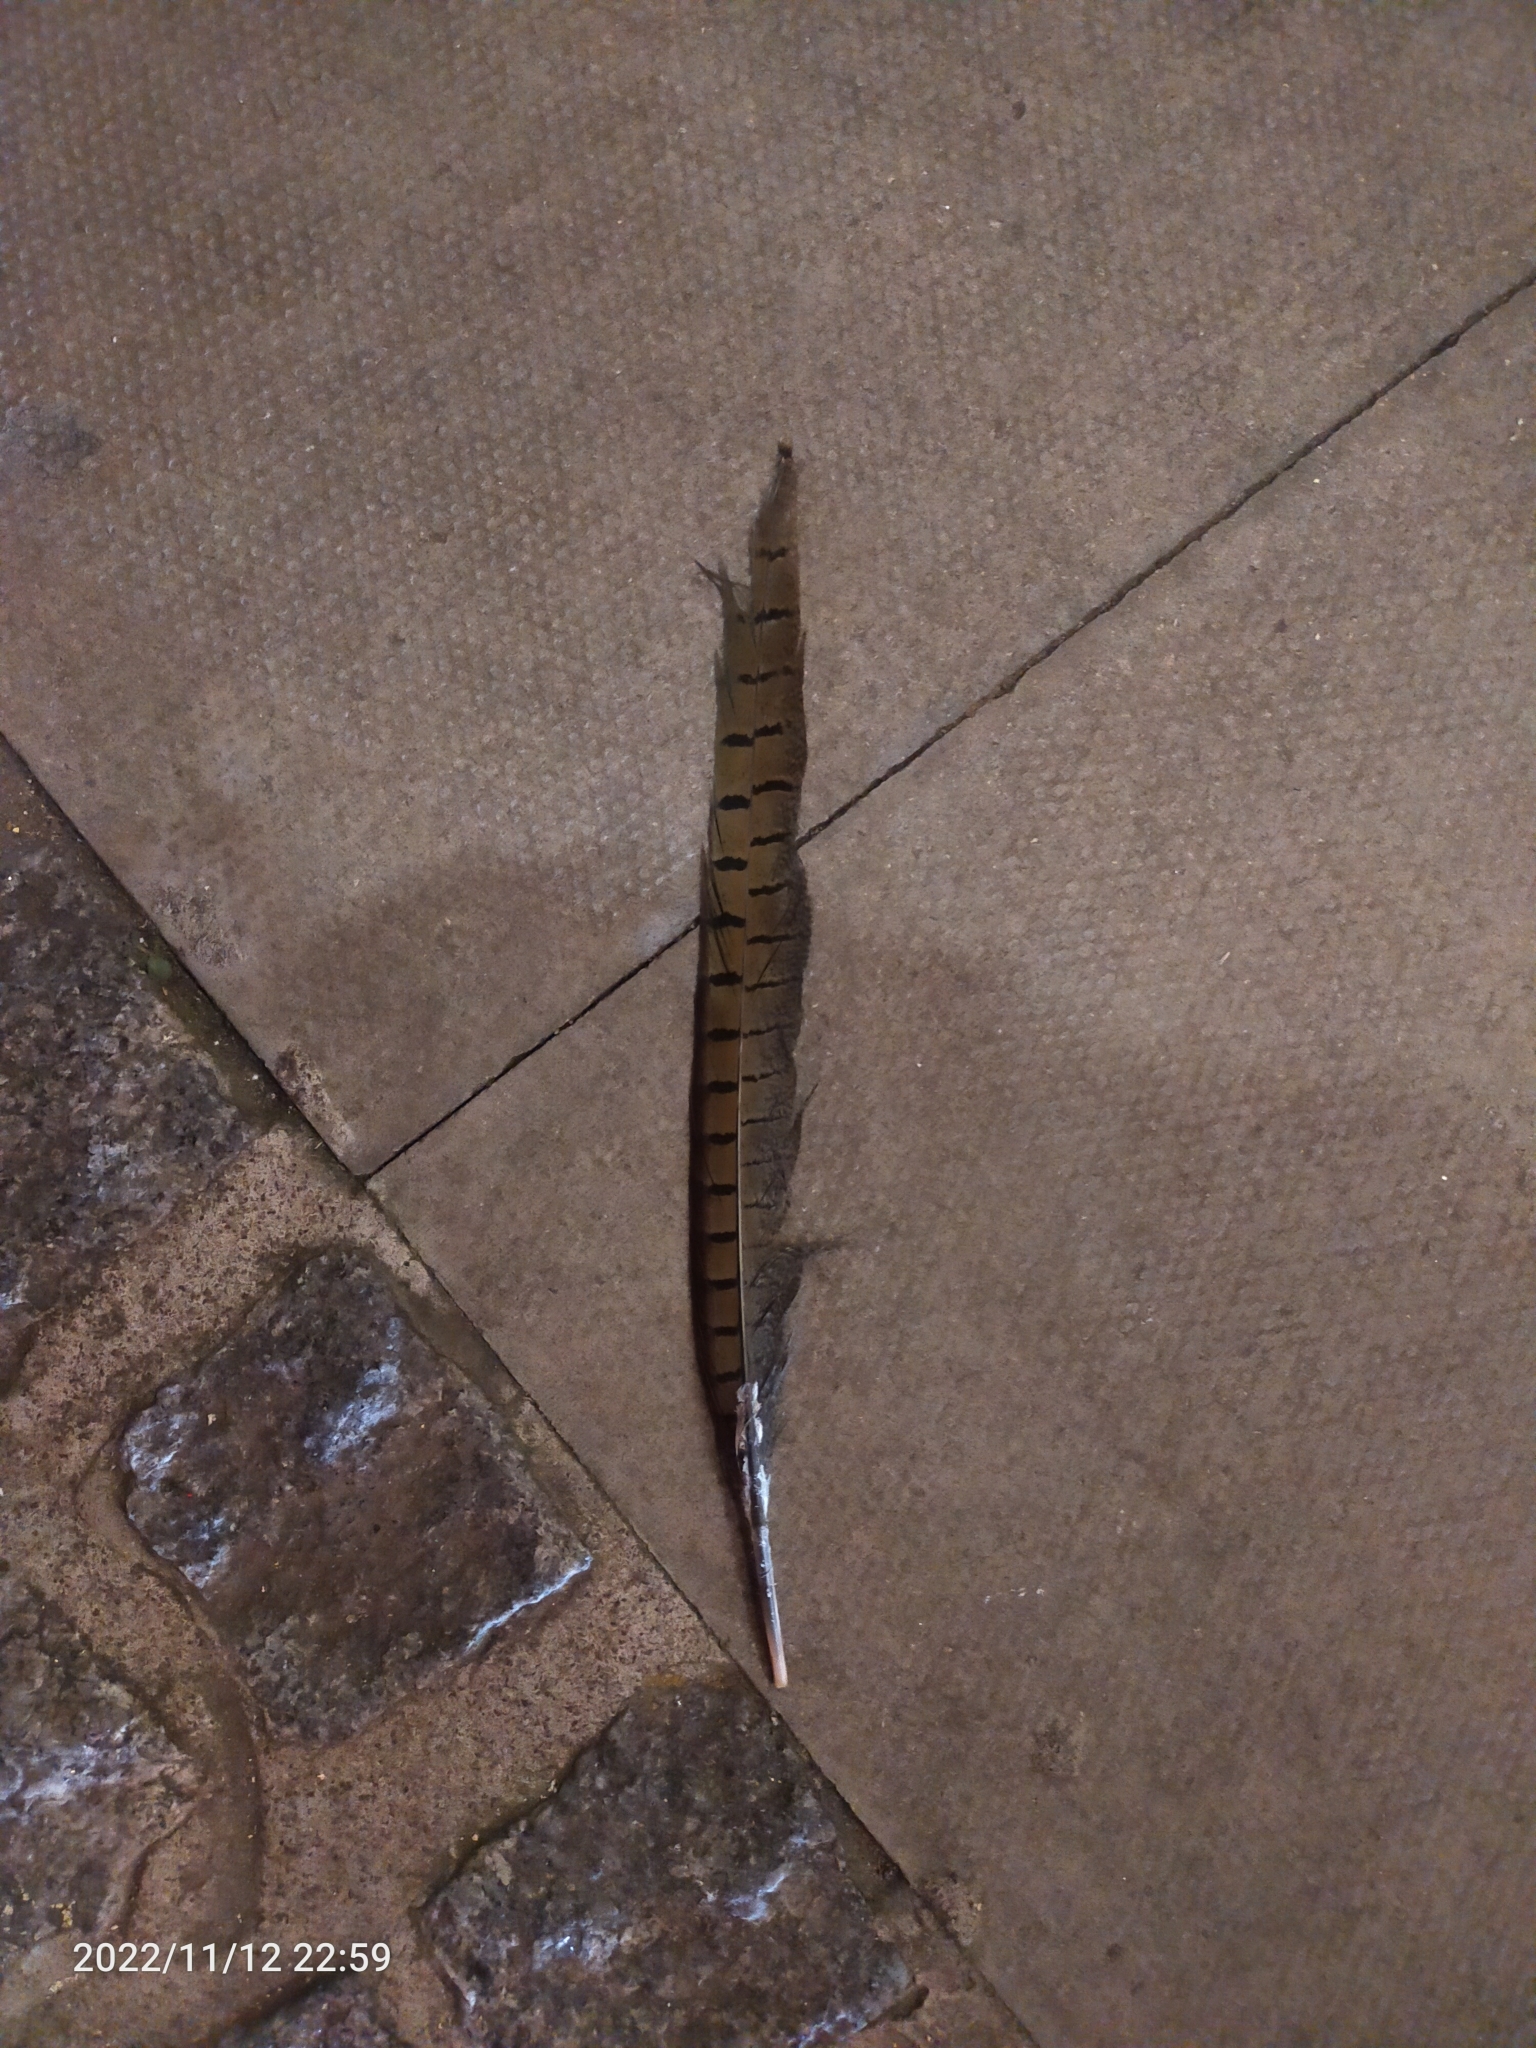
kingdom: Animalia
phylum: Chordata
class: Aves
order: Galliformes
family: Phasianidae
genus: Phasianus
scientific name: Phasianus colchicus
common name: Common pheasant
